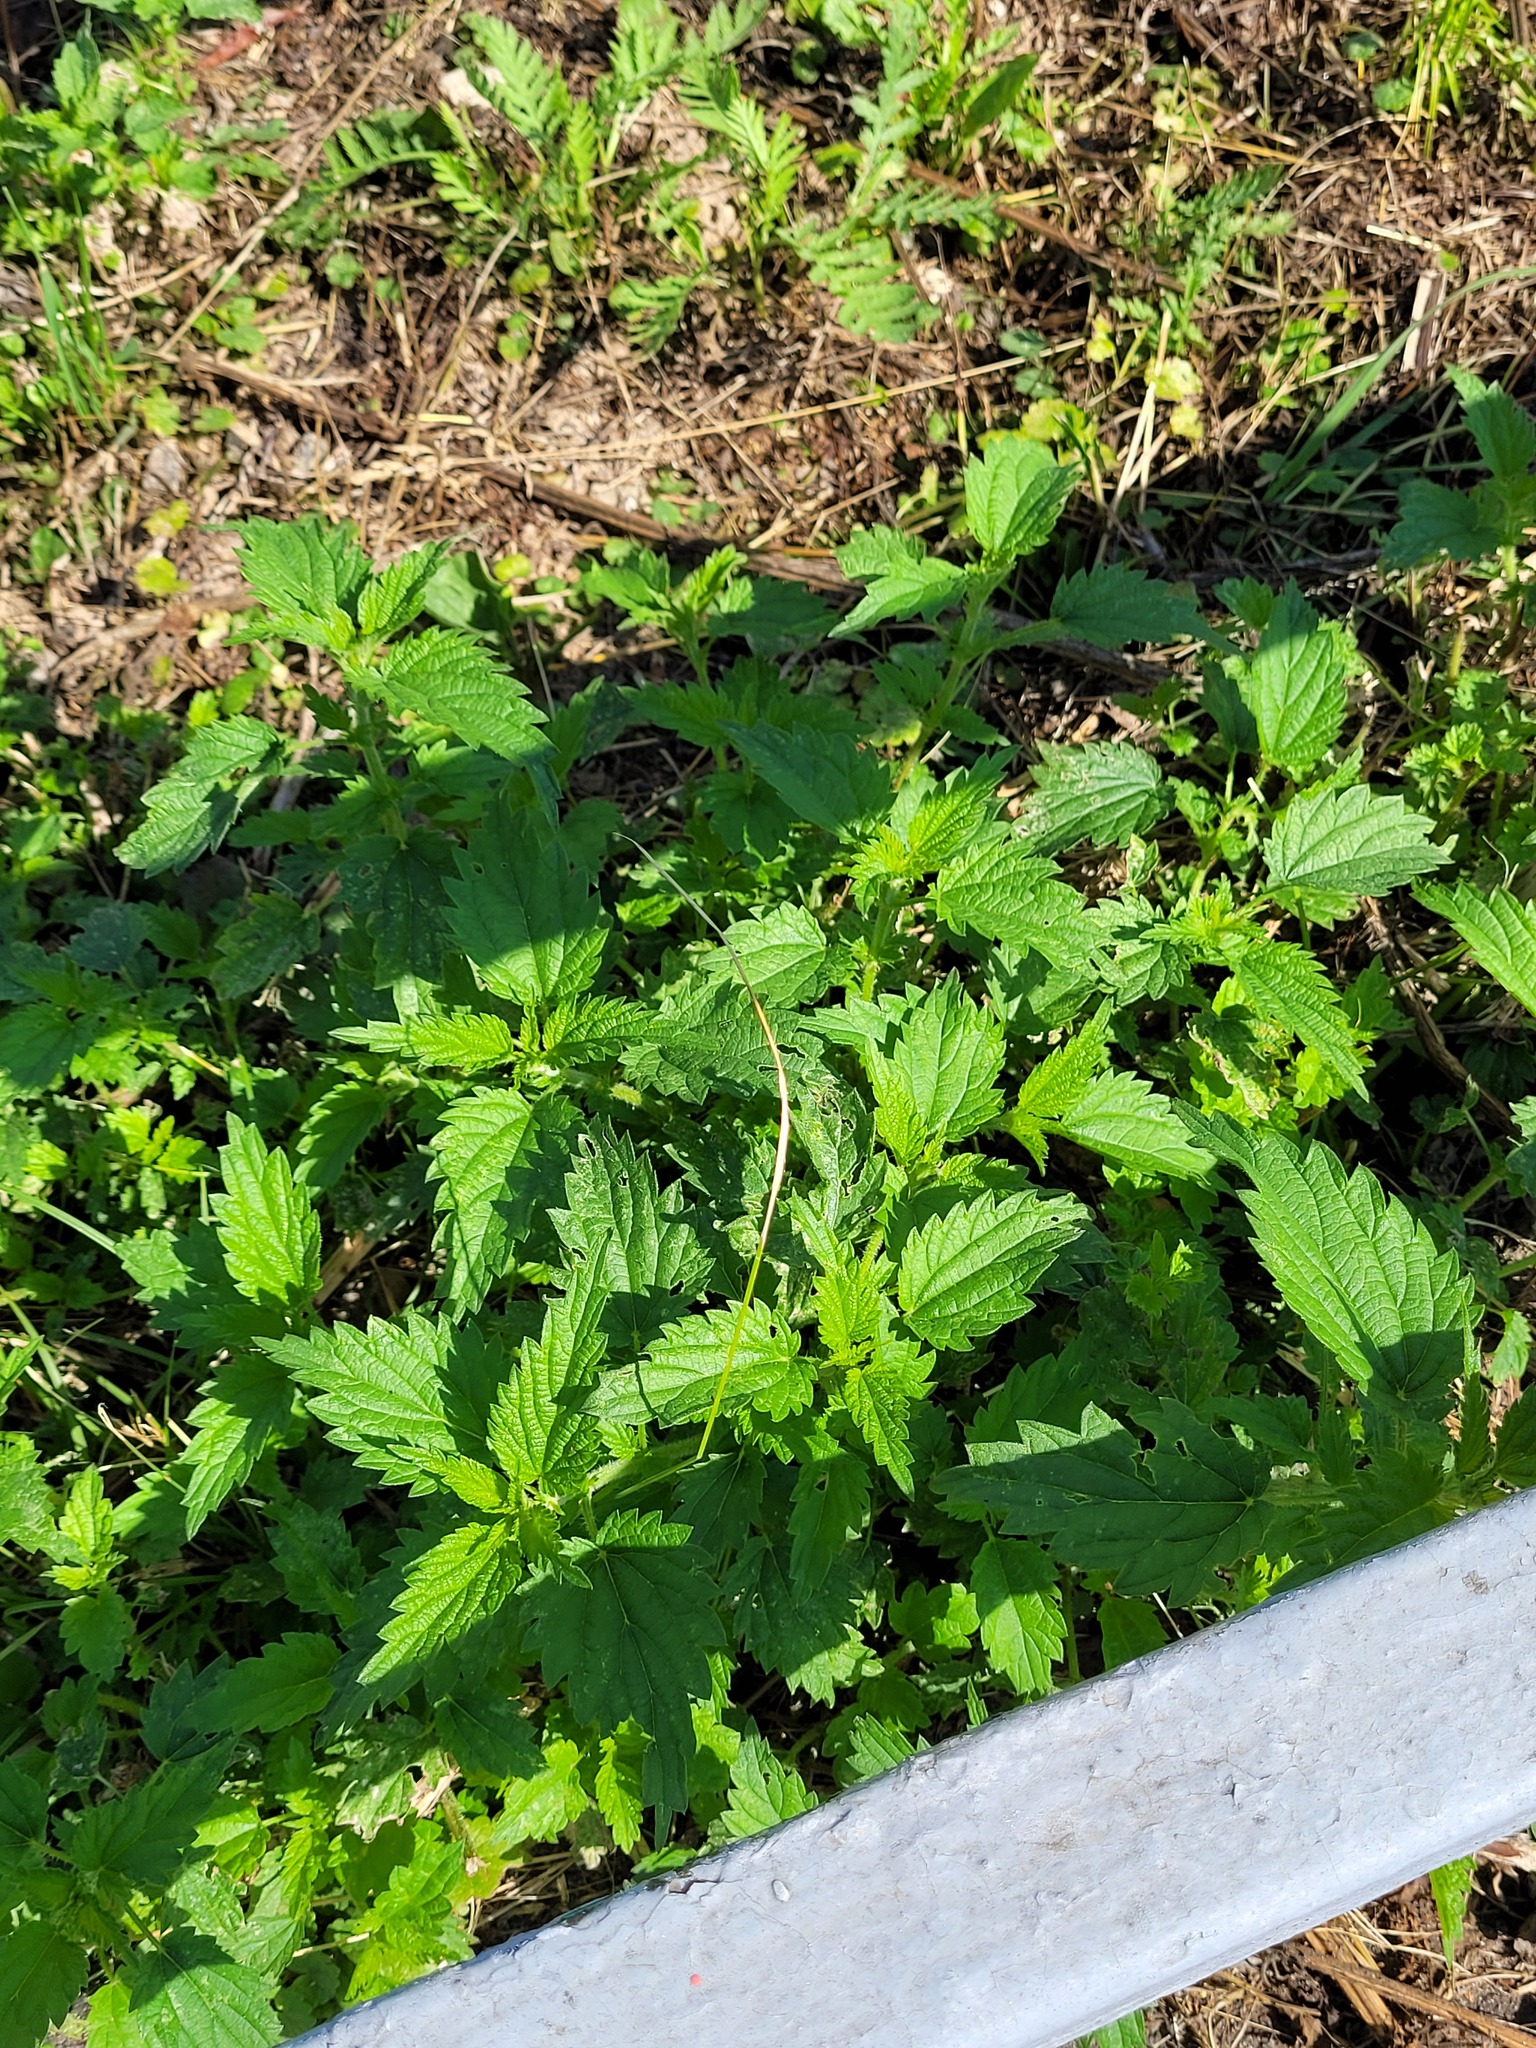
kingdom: Plantae
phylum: Tracheophyta
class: Magnoliopsida
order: Rosales
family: Urticaceae
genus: Urtica
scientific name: Urtica dioica
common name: Common nettle
